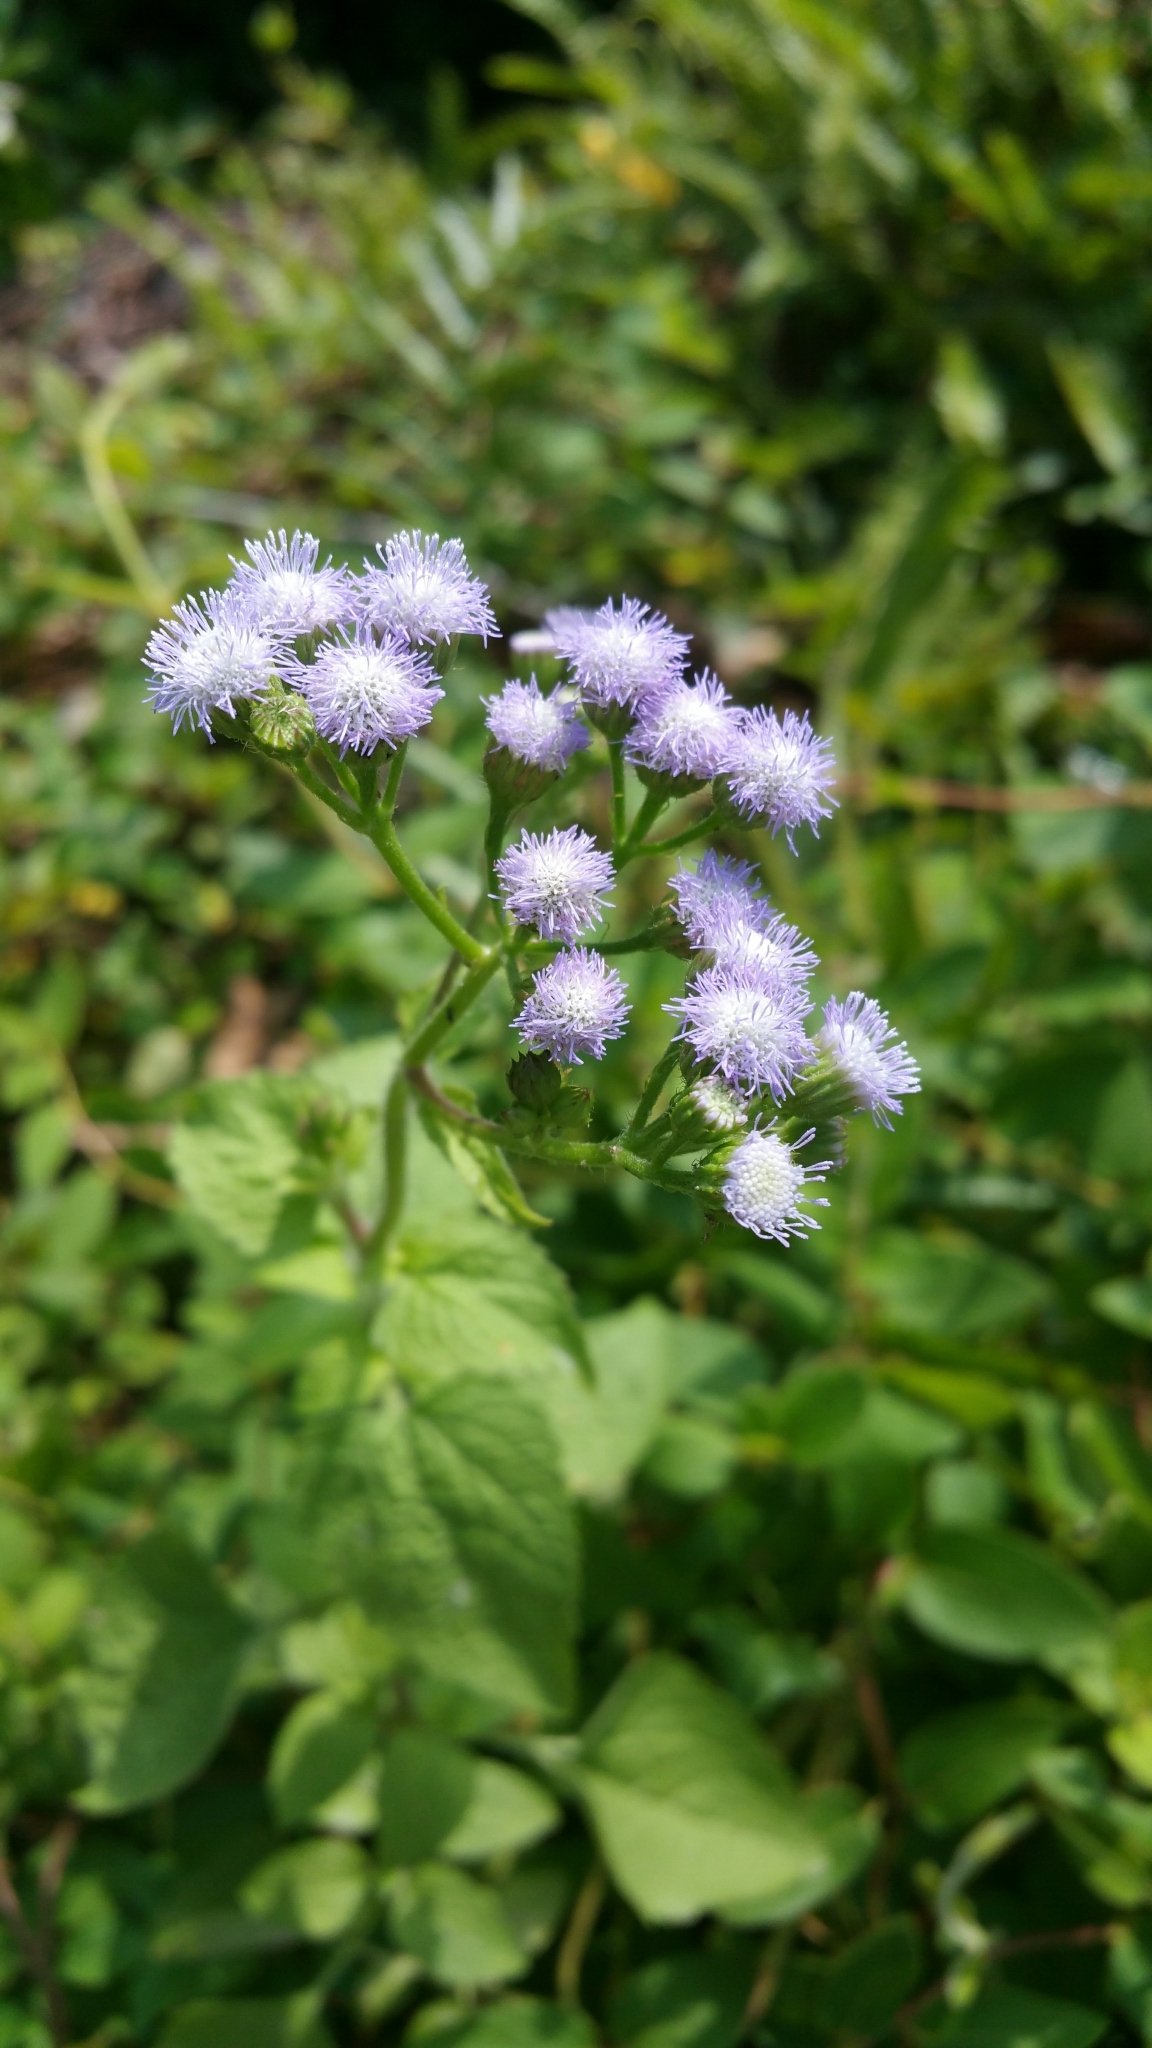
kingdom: Plantae
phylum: Tracheophyta
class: Magnoliopsida
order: Asterales
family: Asteraceae
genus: Ageratum
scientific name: Ageratum conyzoides
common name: Tropical whiteweed
